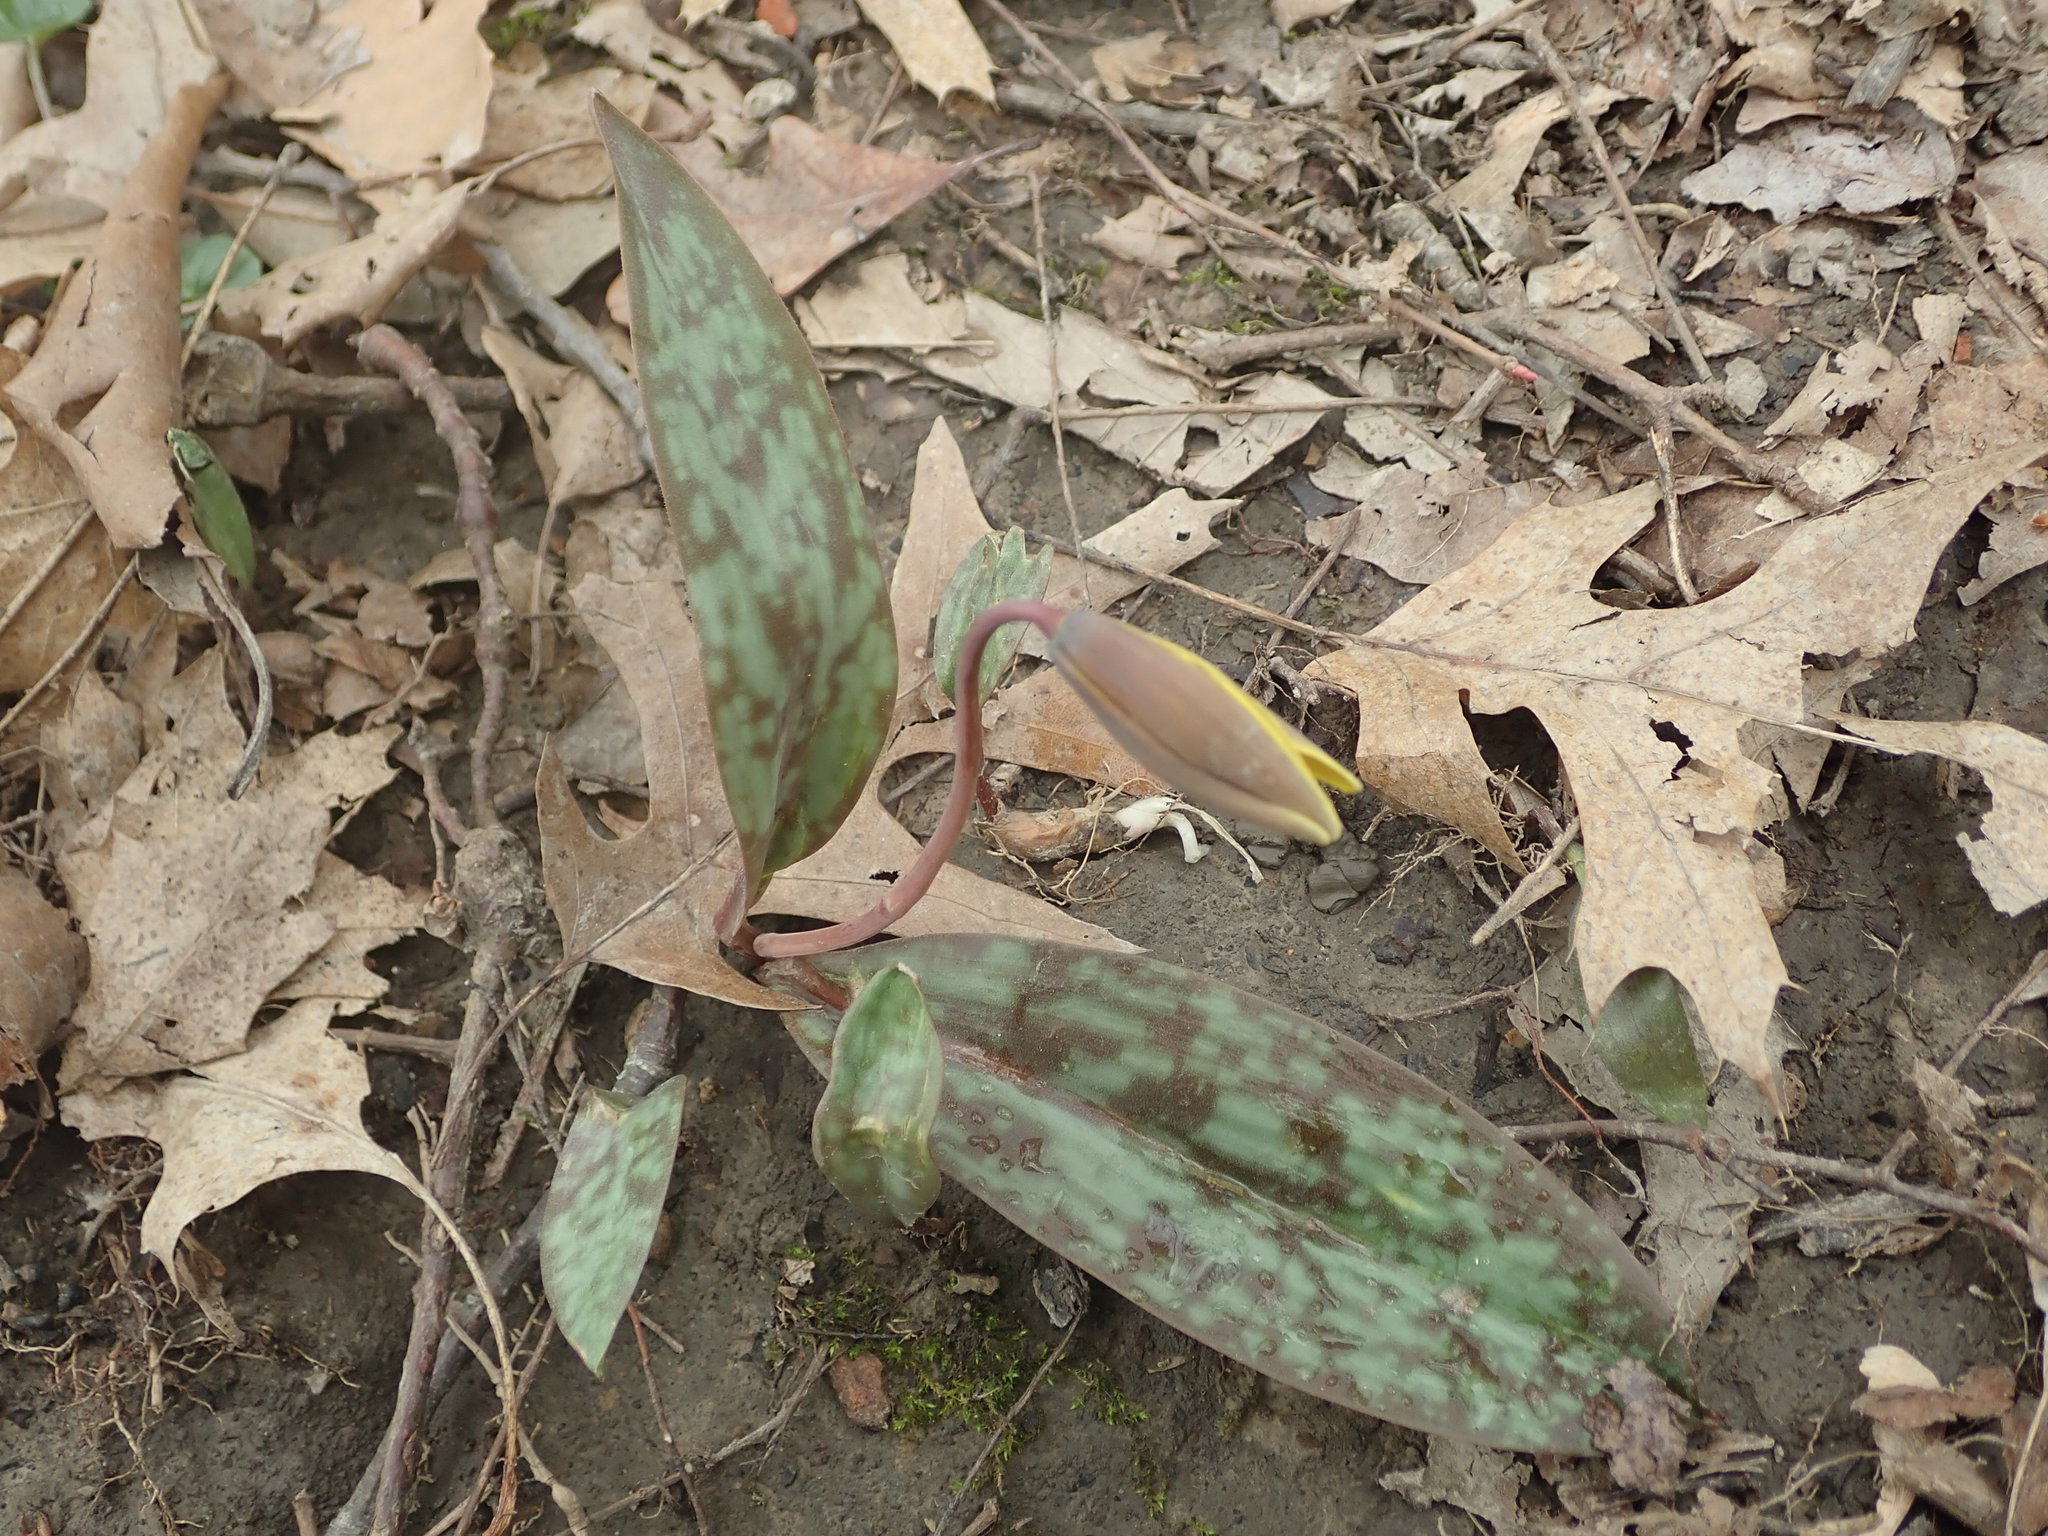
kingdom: Plantae
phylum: Tracheophyta
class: Liliopsida
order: Liliales
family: Liliaceae
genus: Erythronium
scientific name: Erythronium americanum
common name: Yellow adder's-tongue
